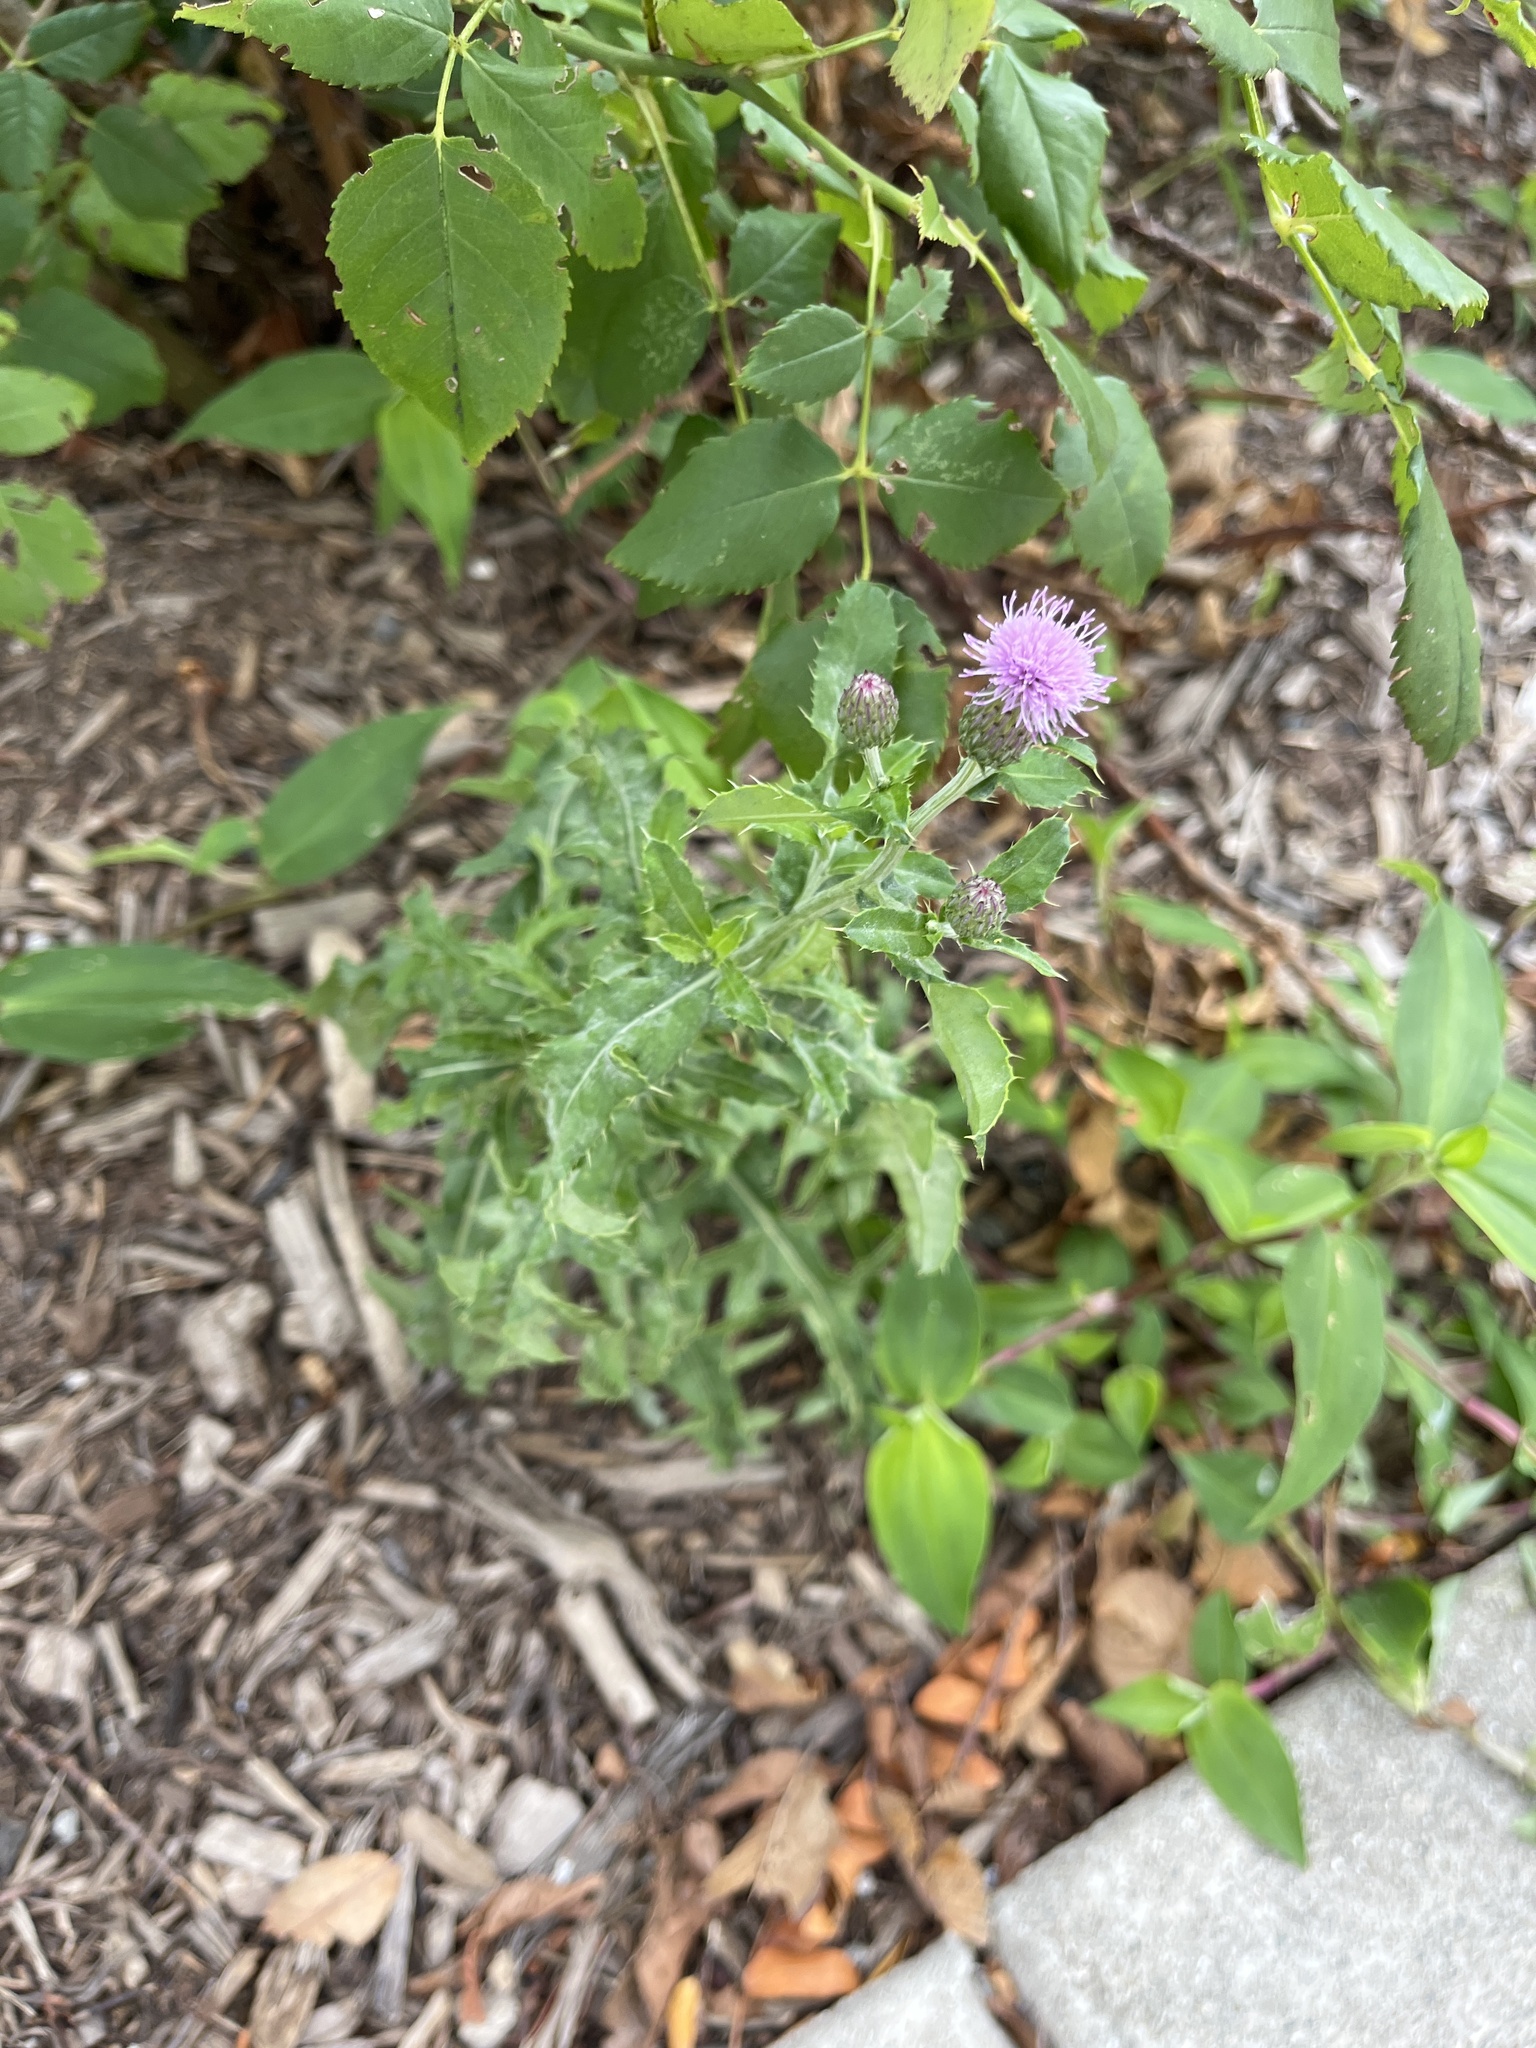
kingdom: Plantae
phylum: Tracheophyta
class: Magnoliopsida
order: Asterales
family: Asteraceae
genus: Cirsium
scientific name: Cirsium arvense
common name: Creeping thistle
